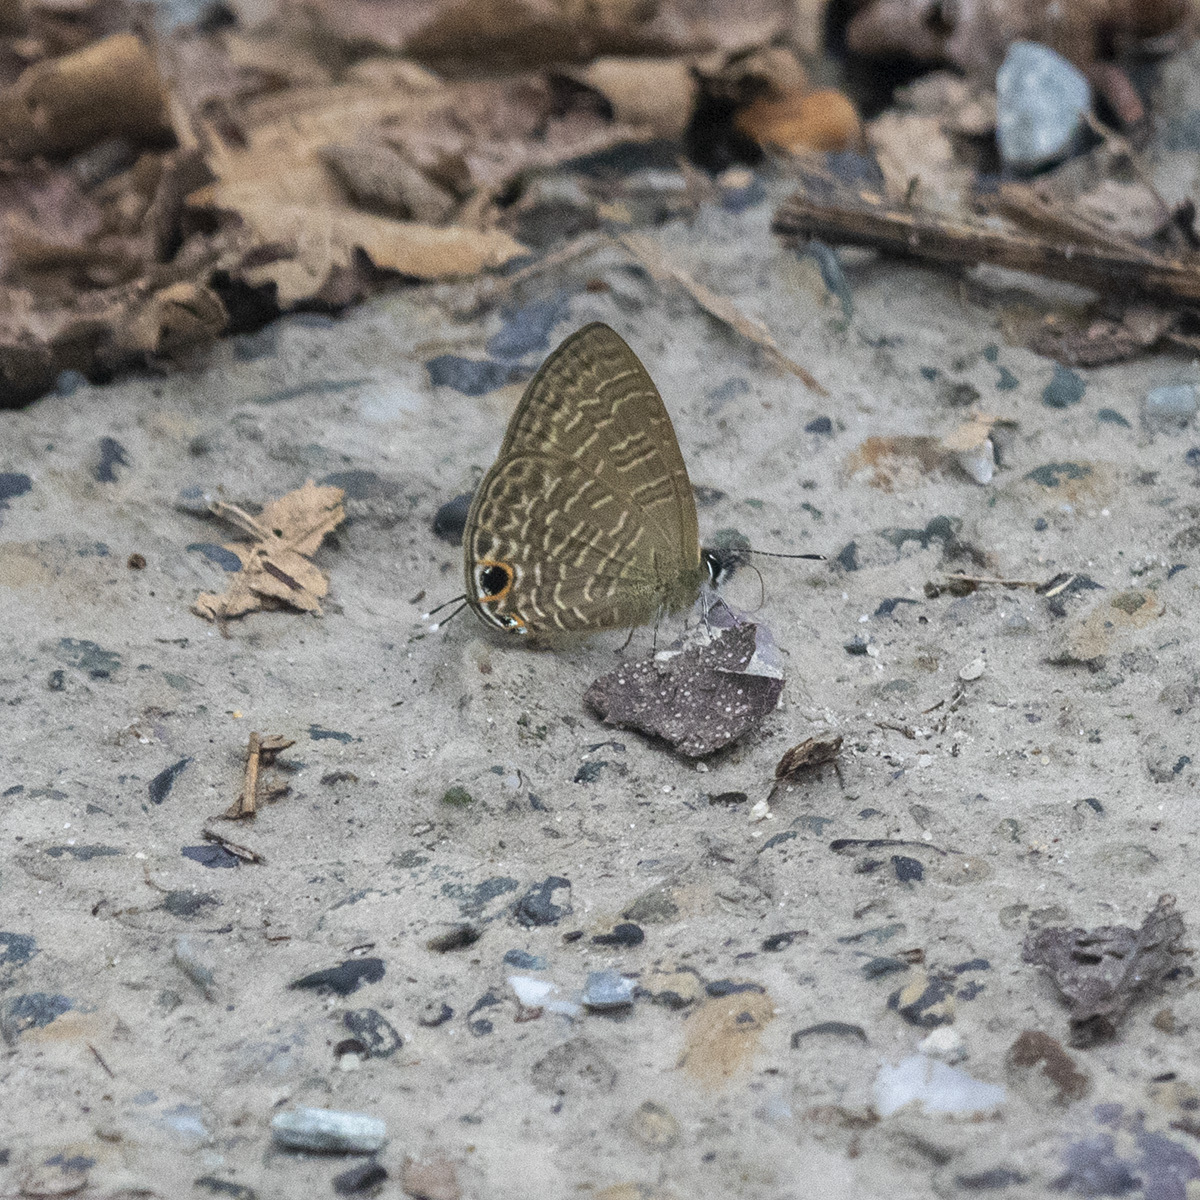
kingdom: Animalia
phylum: Arthropoda
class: Insecta
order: Lepidoptera
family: Lycaenidae
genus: Nacaduba
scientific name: Nacaduba berenice
